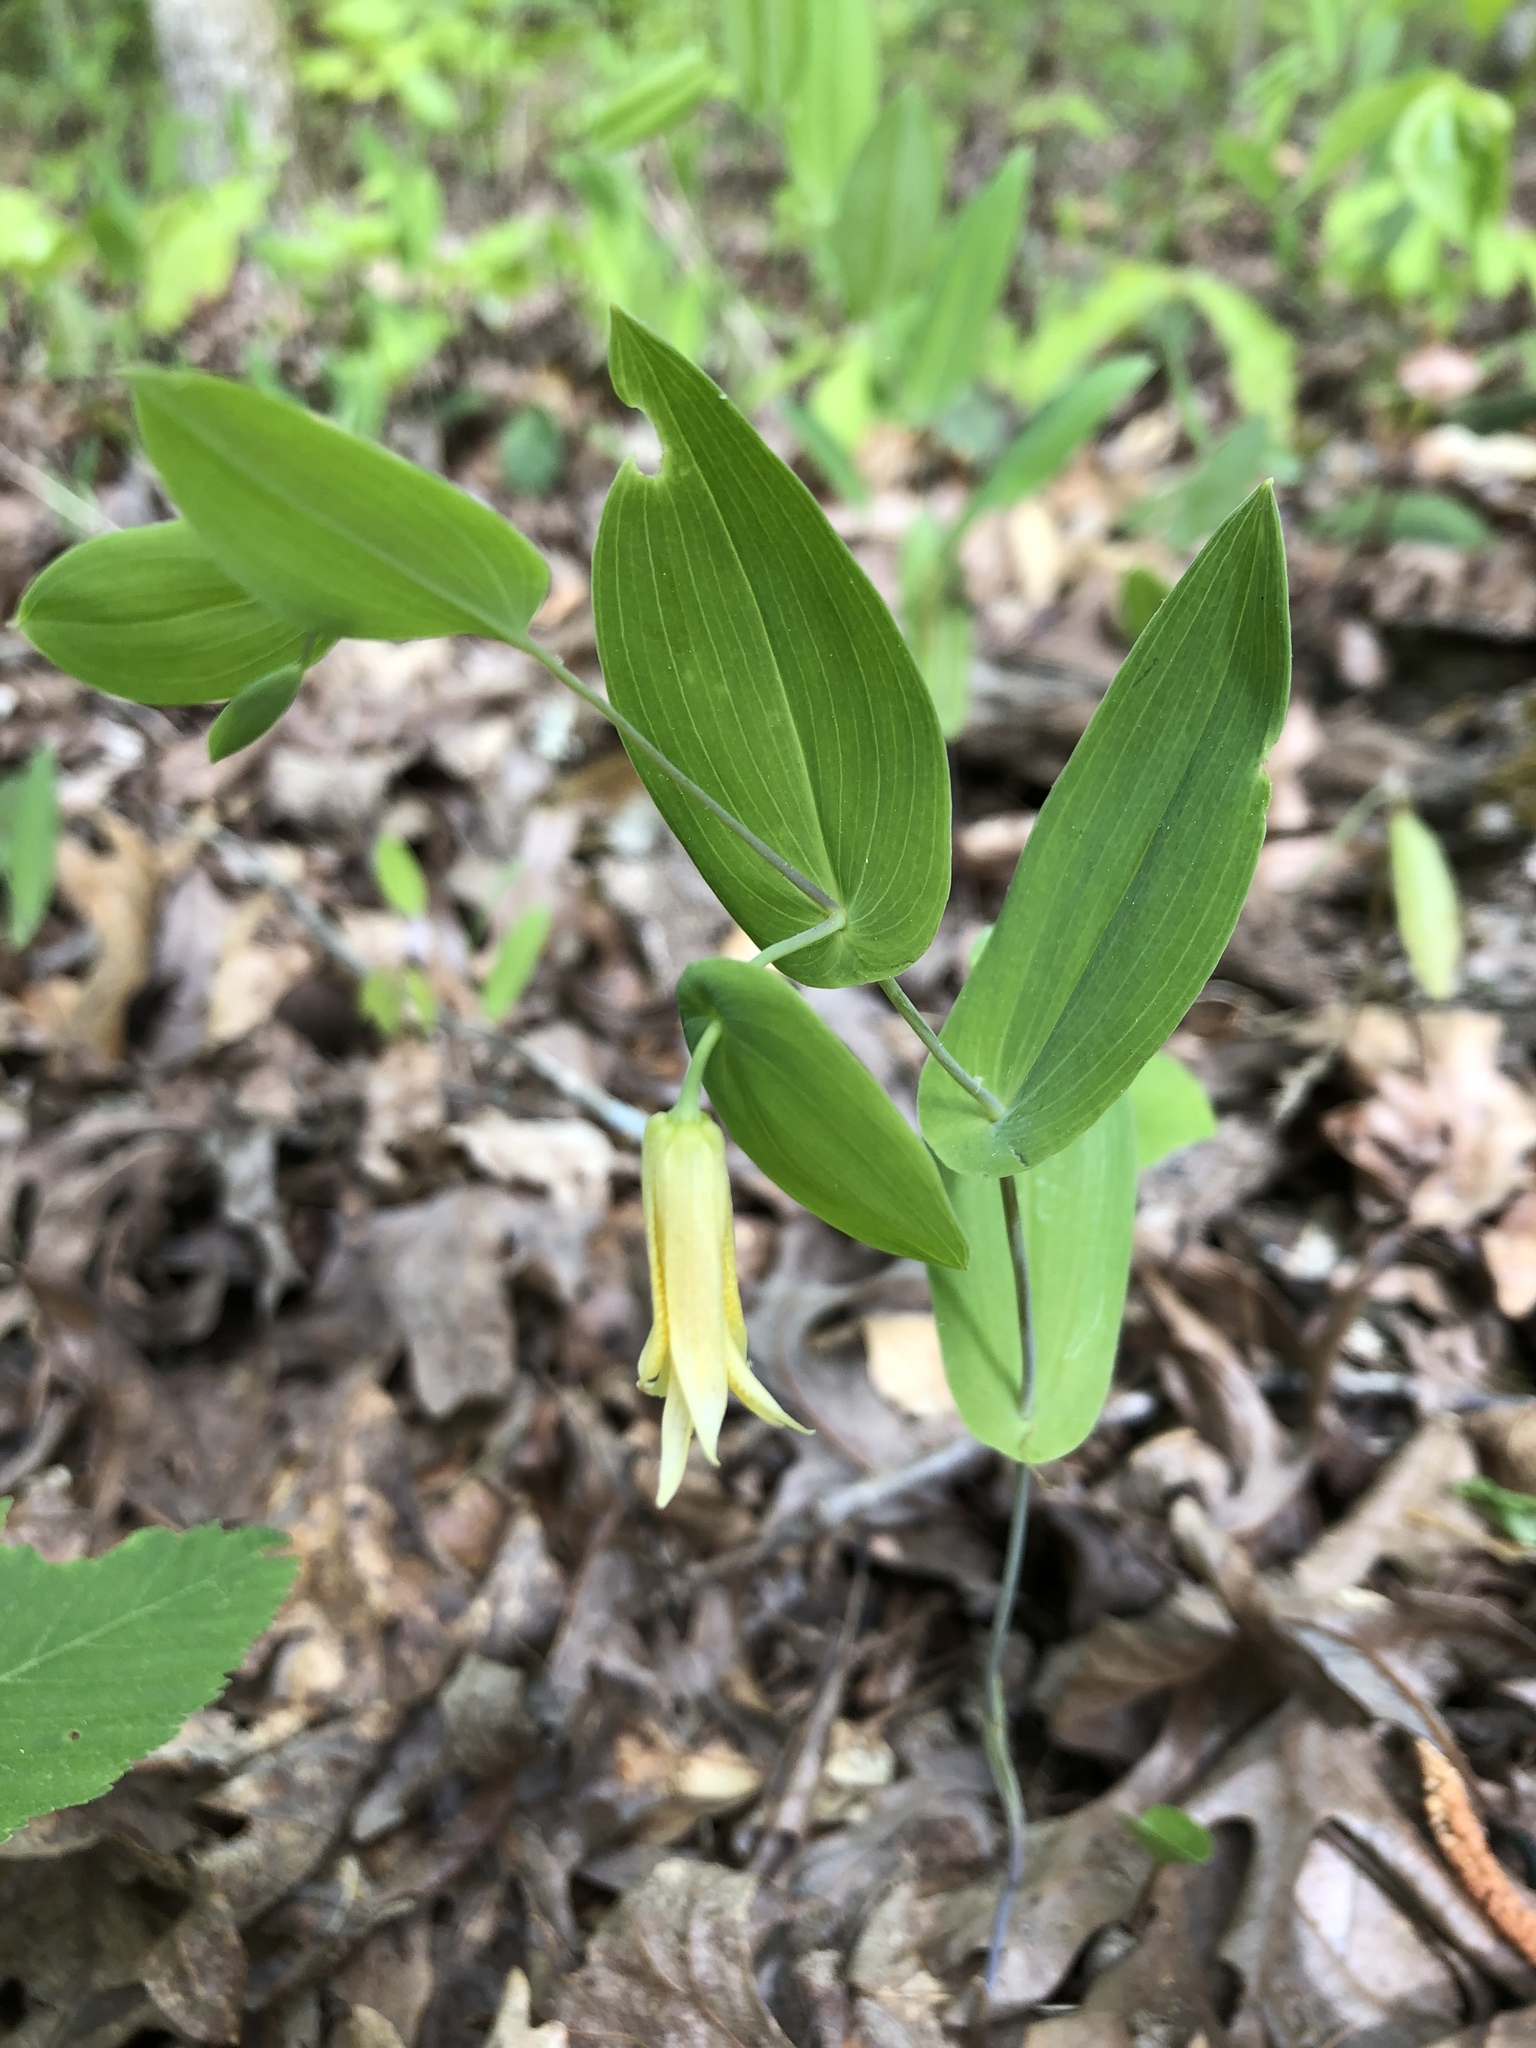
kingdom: Plantae
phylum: Tracheophyta
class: Liliopsida
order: Liliales
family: Colchicaceae
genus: Uvularia
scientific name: Uvularia perfoliata
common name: Perfoliate bellwort
